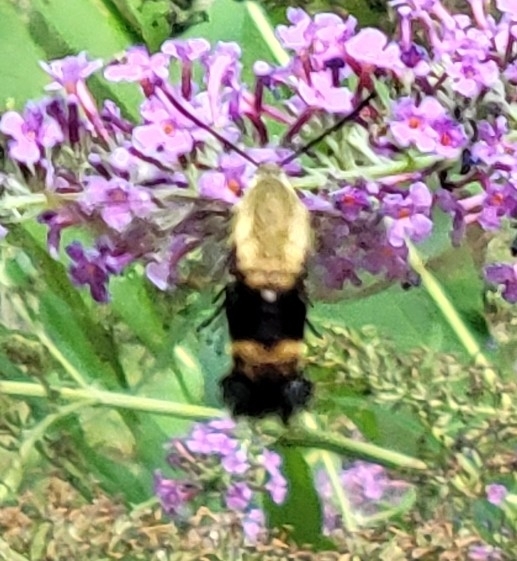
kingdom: Animalia
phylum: Arthropoda
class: Insecta
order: Lepidoptera
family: Sphingidae
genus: Hemaris
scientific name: Hemaris diffinis
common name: Bumblebee moth
